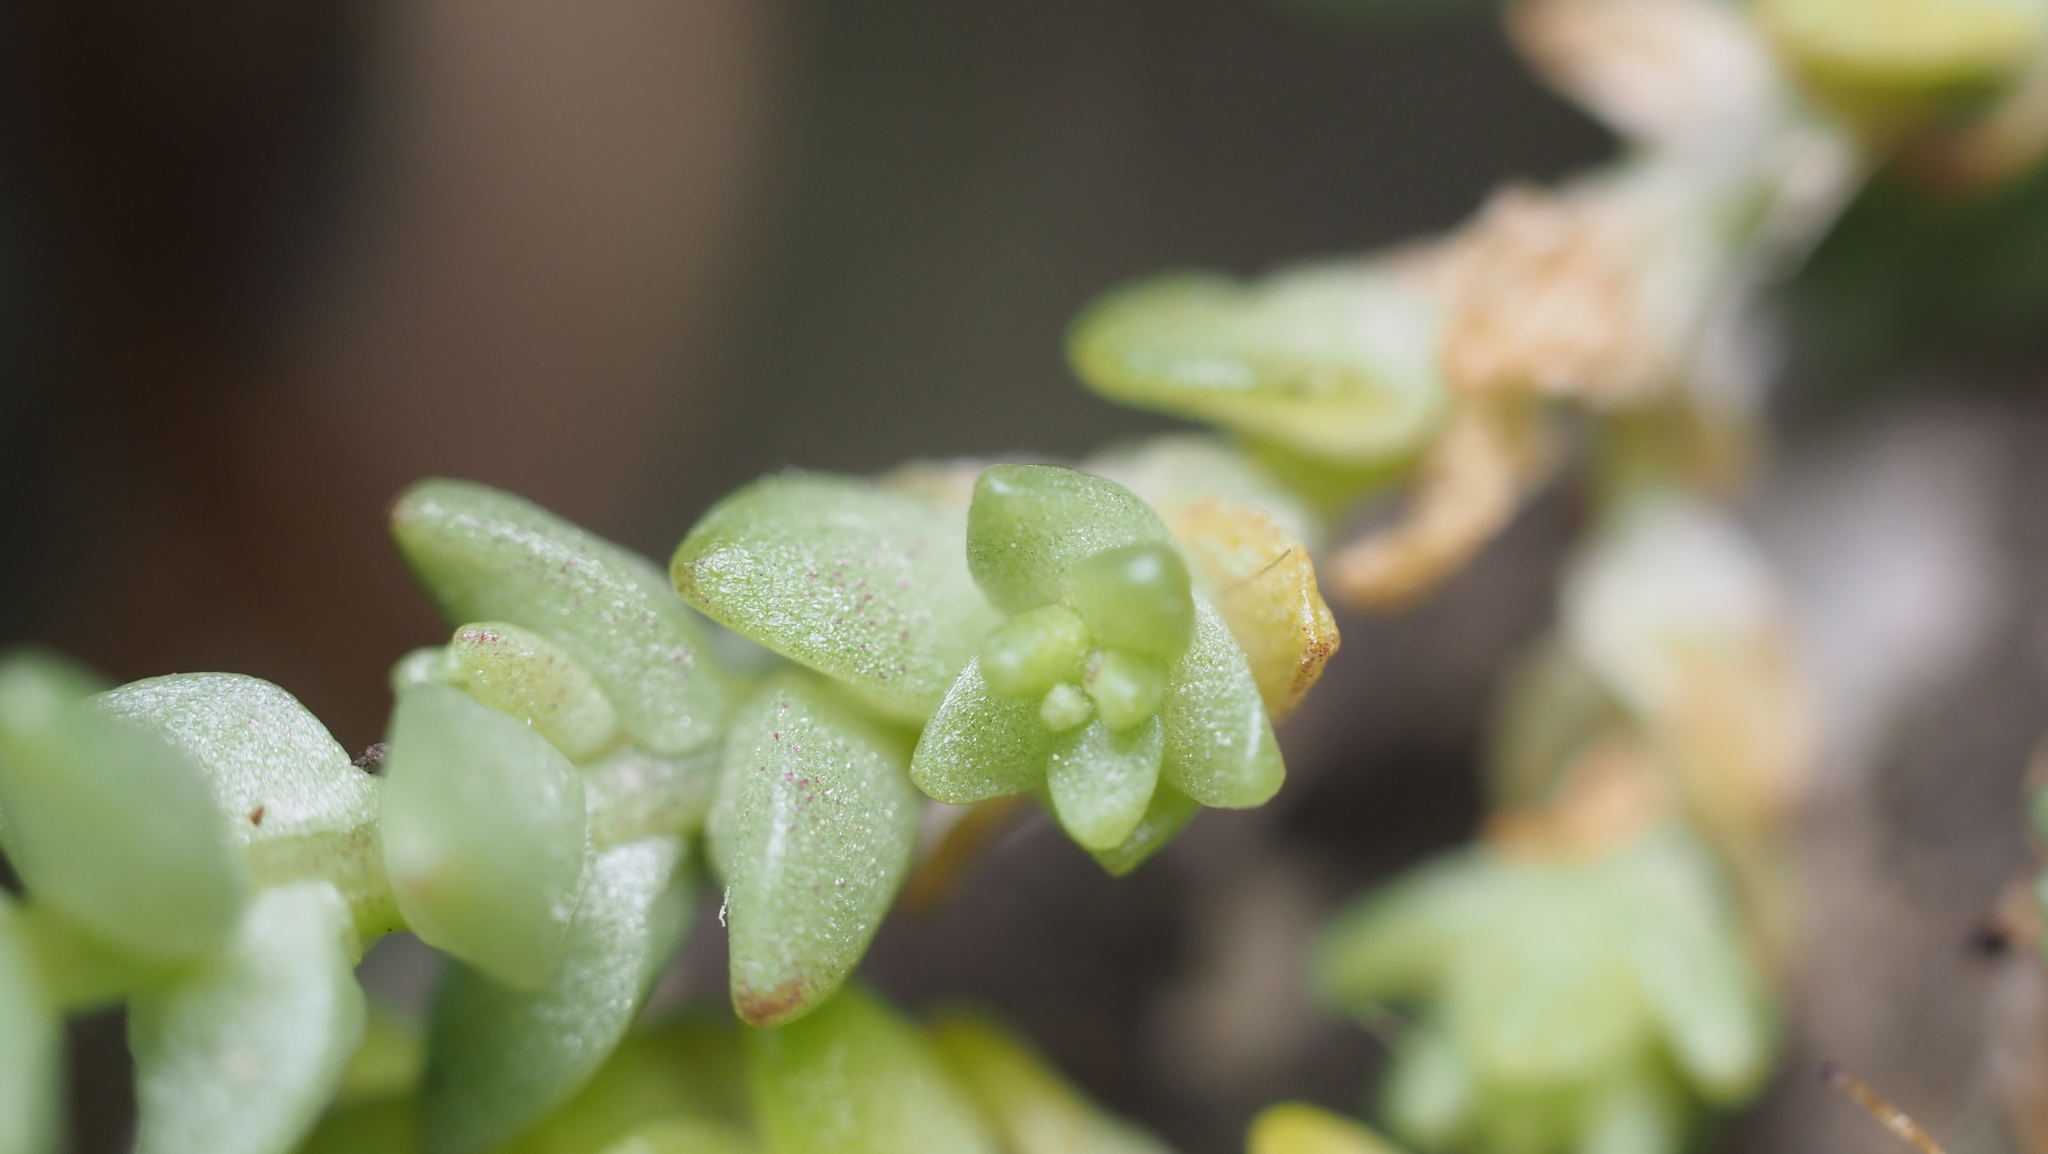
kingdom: Plantae
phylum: Tracheophyta
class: Magnoliopsida
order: Saxifragales
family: Crassulaceae
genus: Sedum
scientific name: Sedum acre
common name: Biting stonecrop
